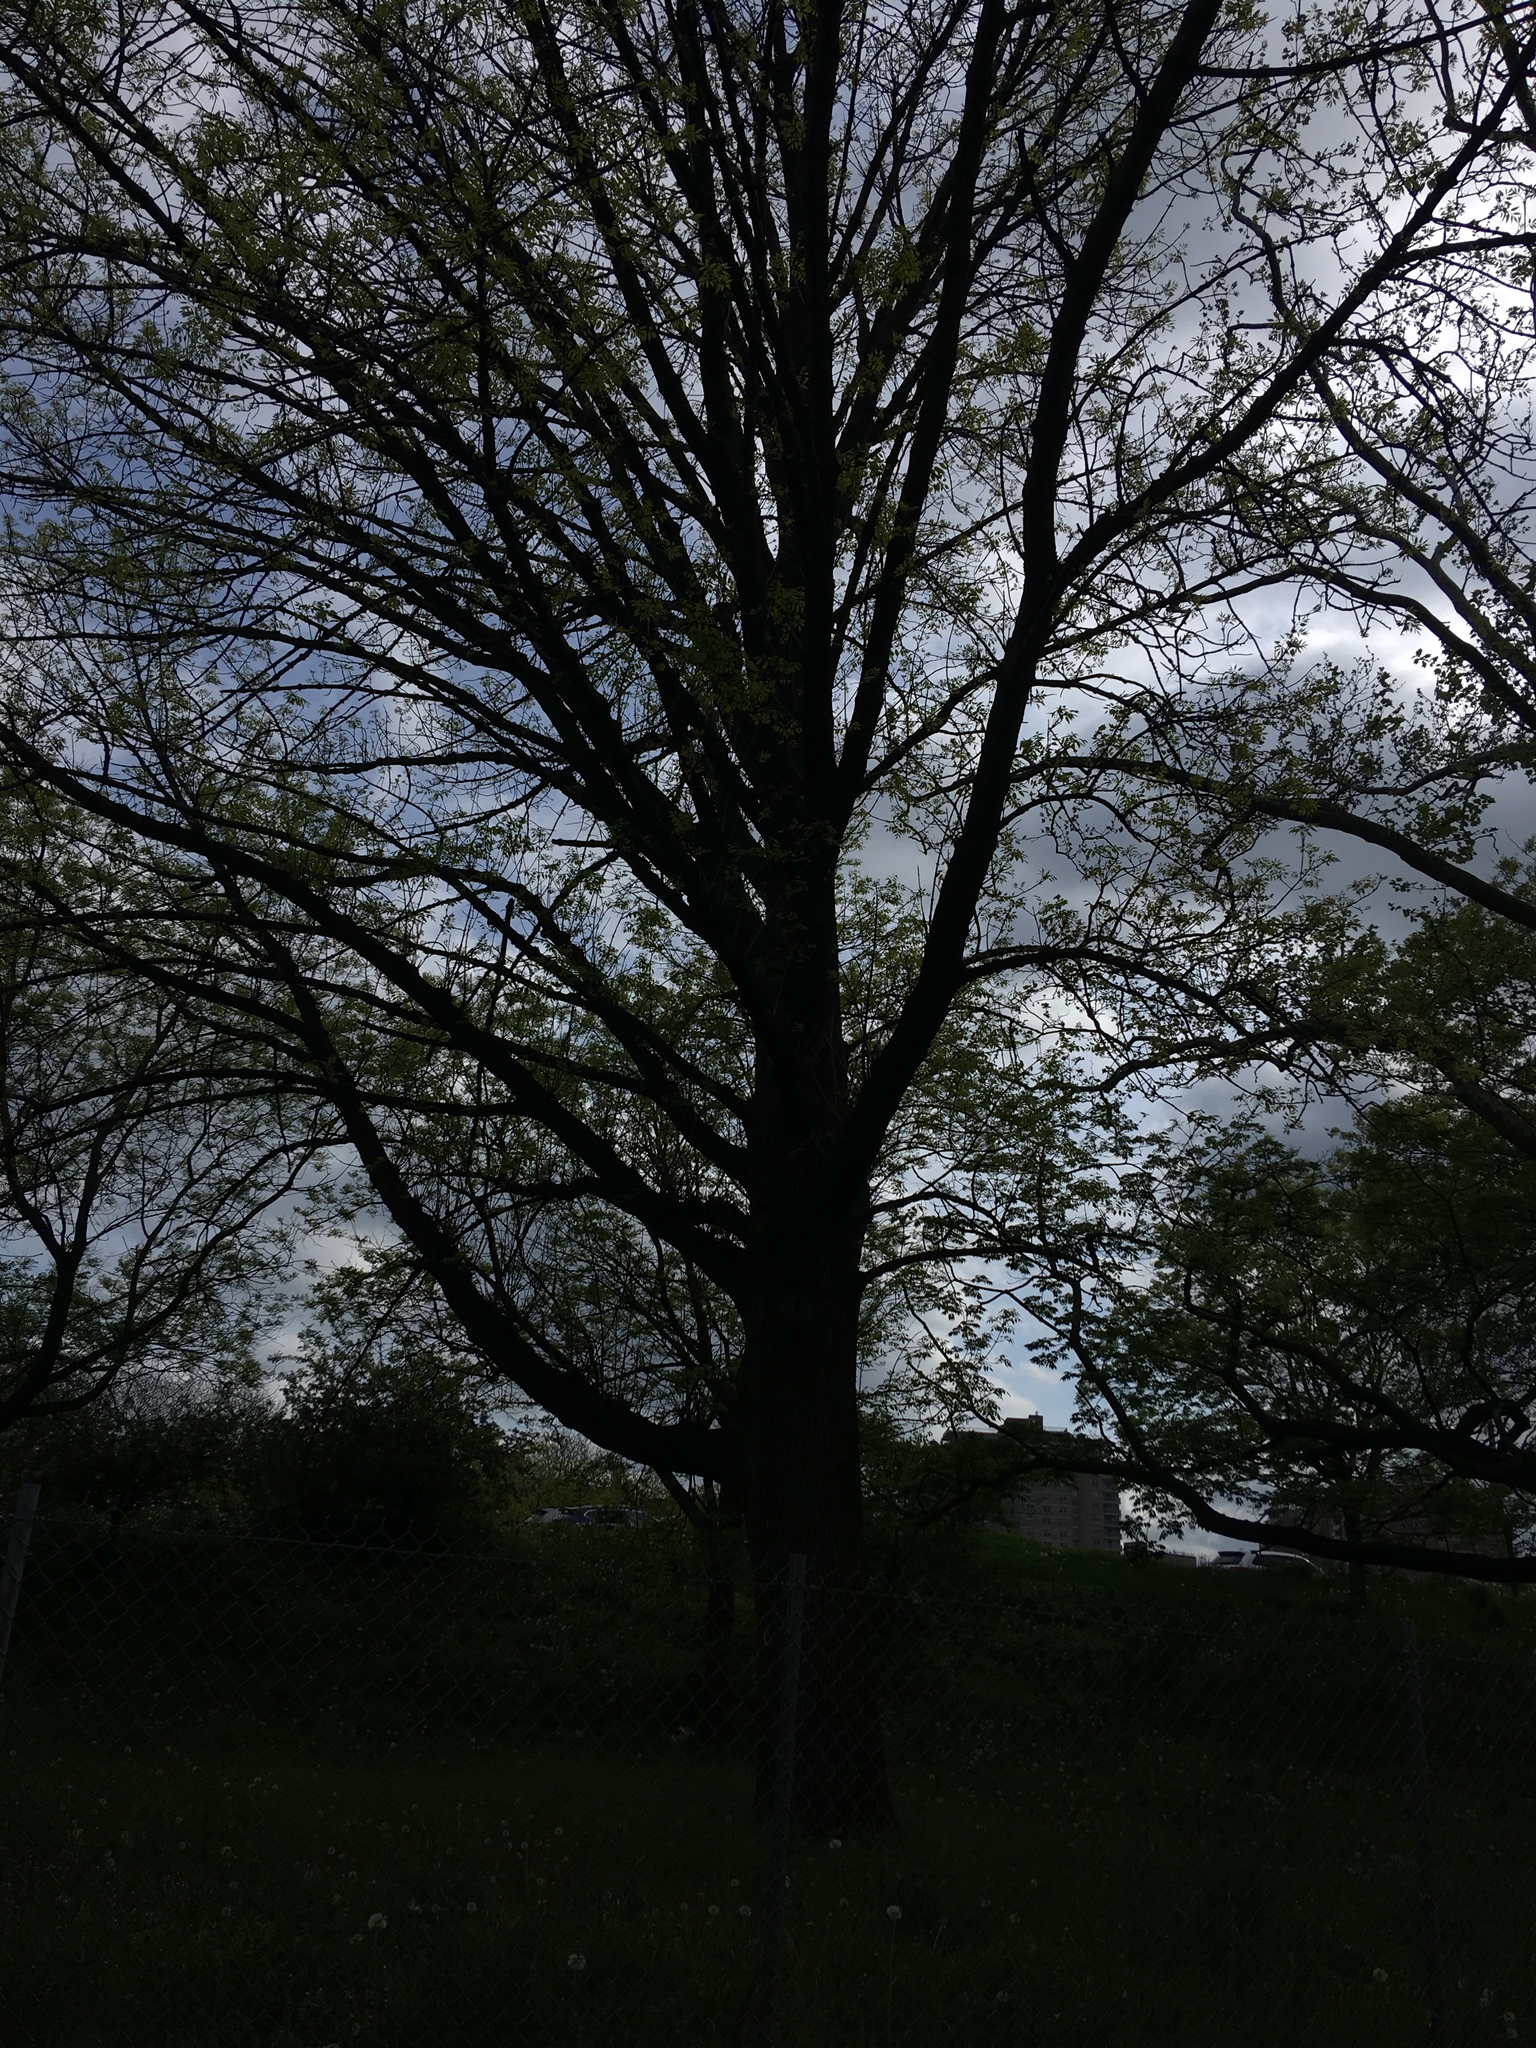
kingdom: Plantae
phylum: Tracheophyta
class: Magnoliopsida
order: Lamiales
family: Oleaceae
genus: Fraxinus
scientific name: Fraxinus americana
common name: White ash
